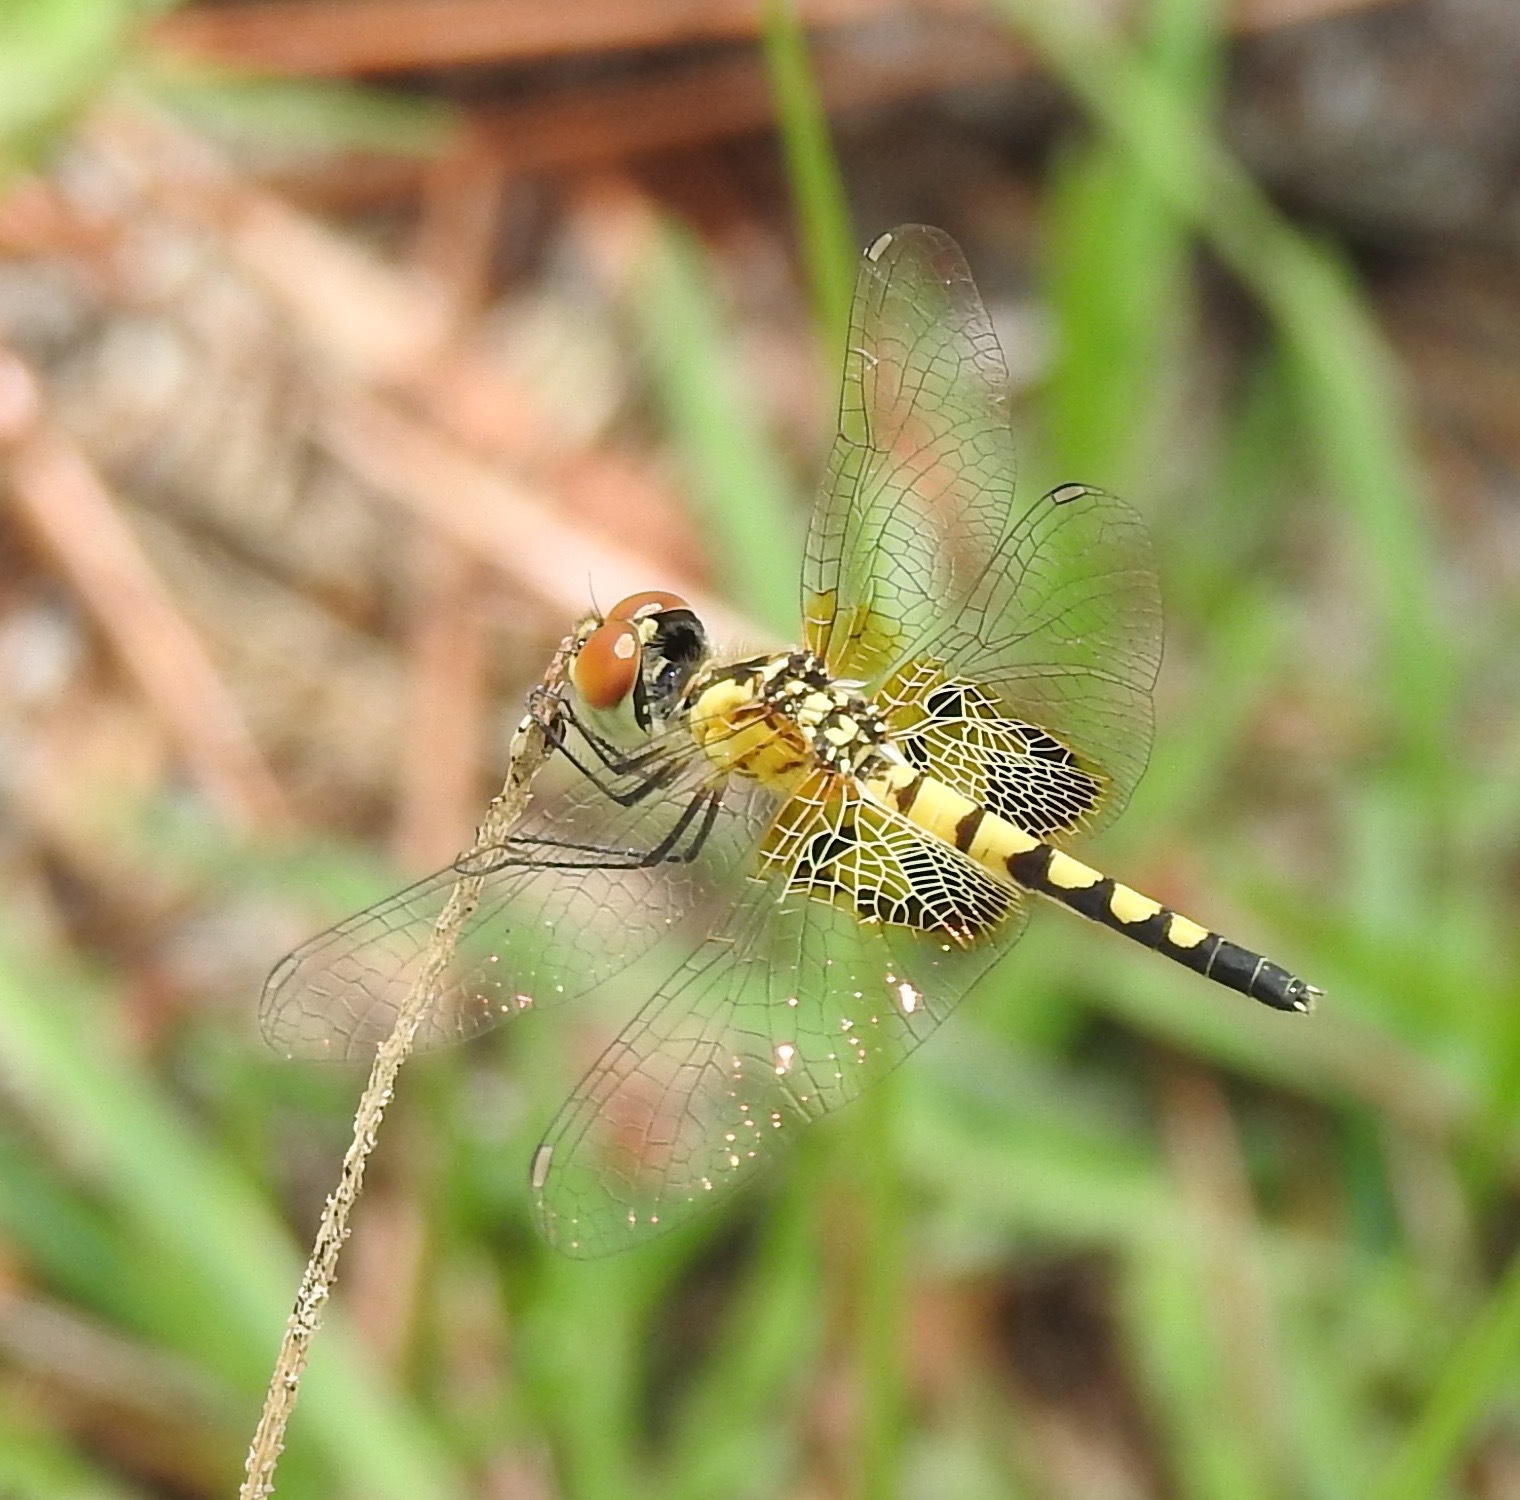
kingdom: Animalia
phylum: Arthropoda
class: Insecta
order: Odonata
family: Libellulidae
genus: Celithemis
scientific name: Celithemis amanda
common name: Amanda's pennant
